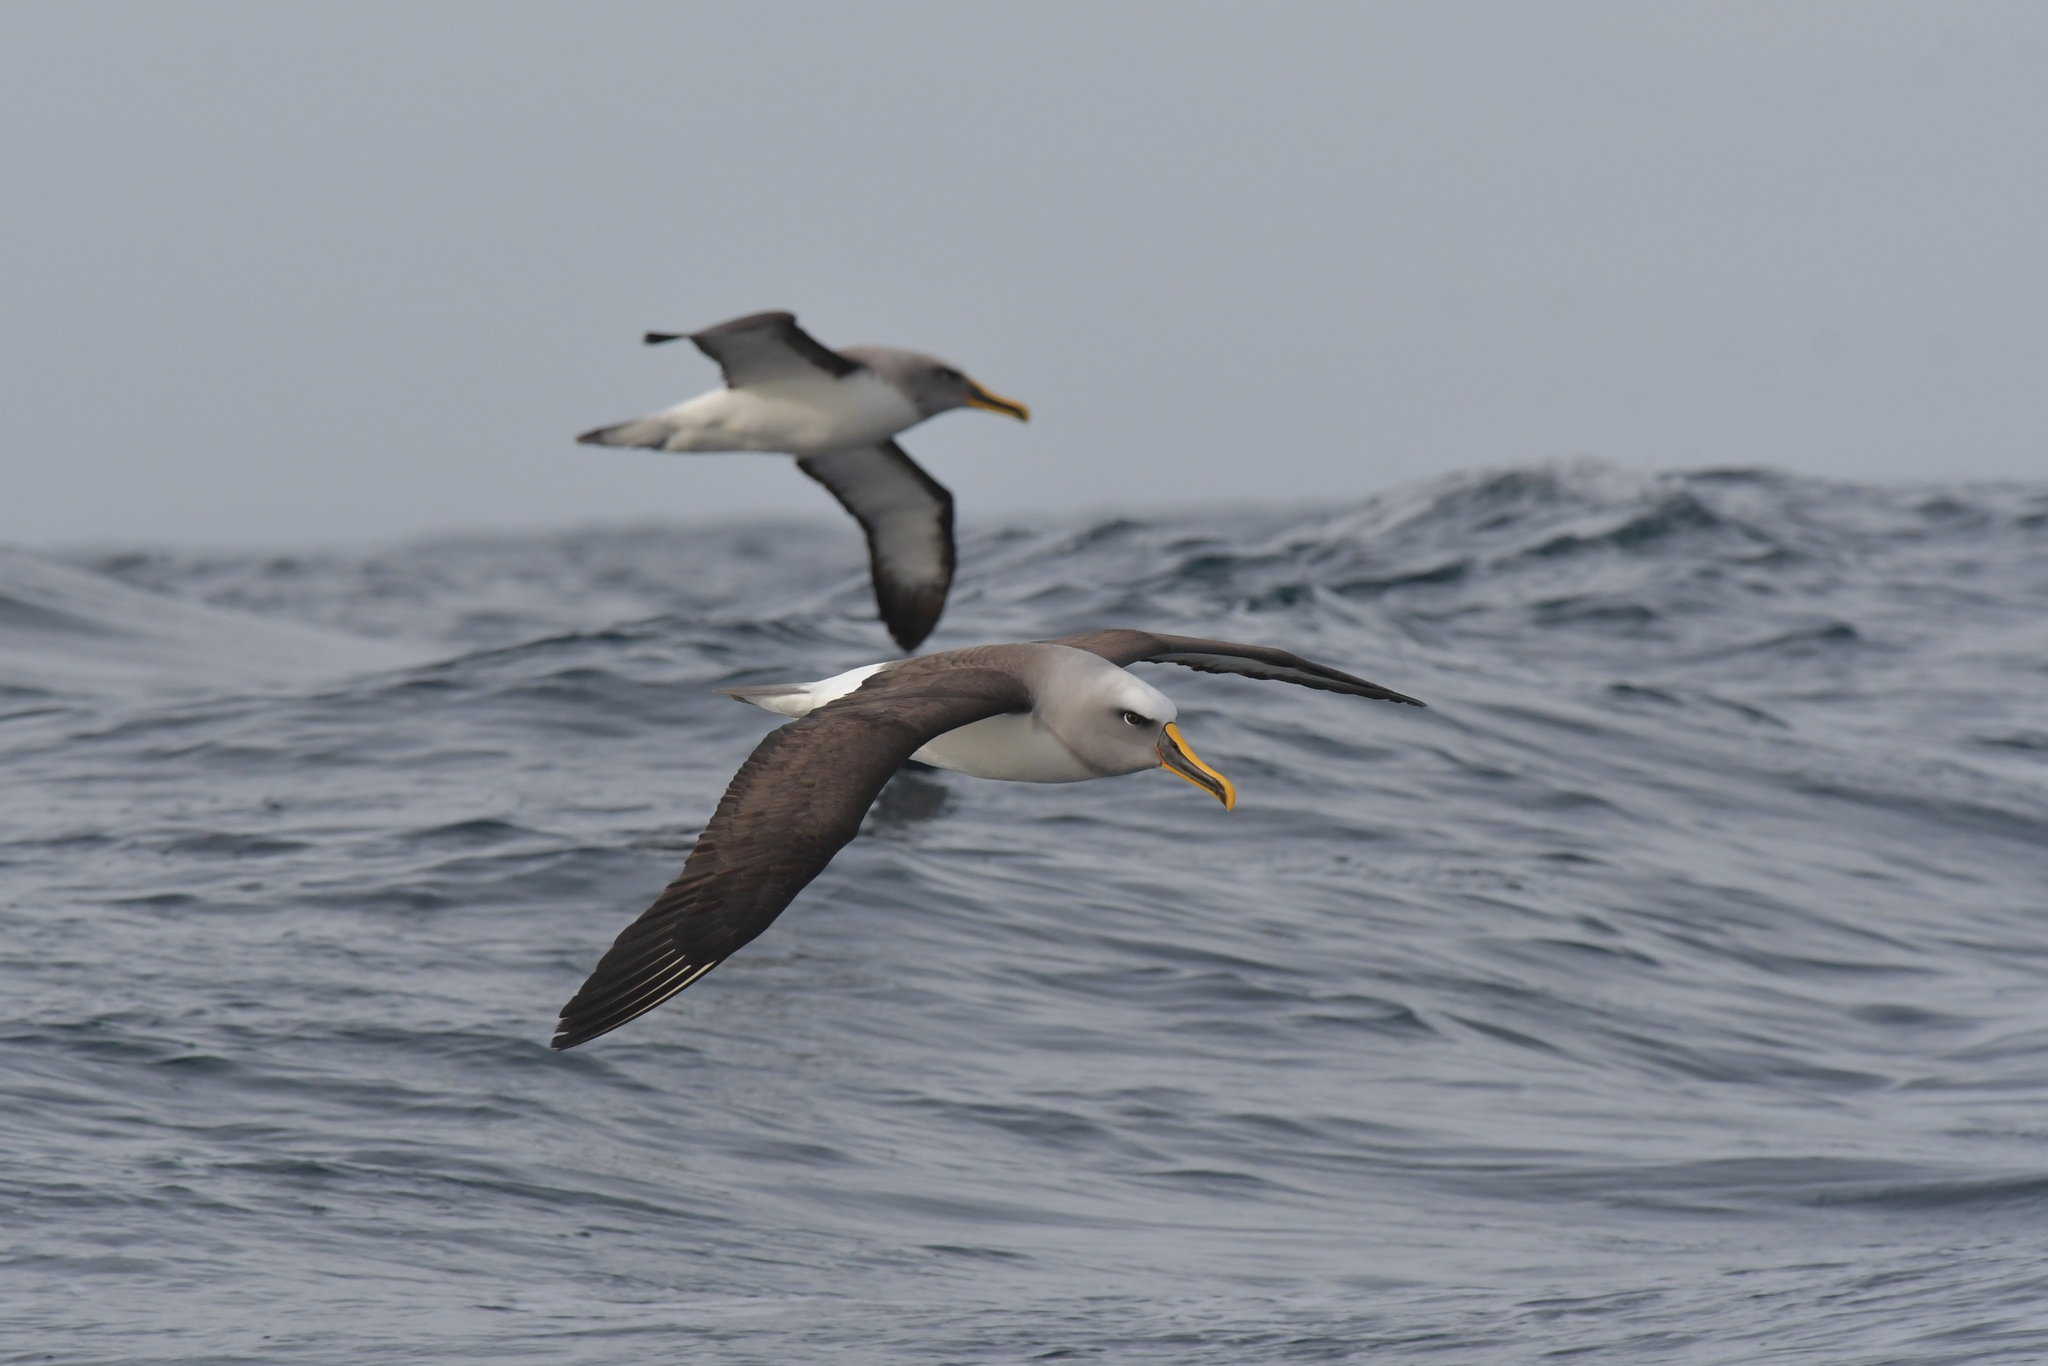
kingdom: Animalia
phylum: Chordata
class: Aves
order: Procellariiformes
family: Diomedeidae
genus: Thalassarche
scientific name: Thalassarche bulleri
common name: Buller's albatross
